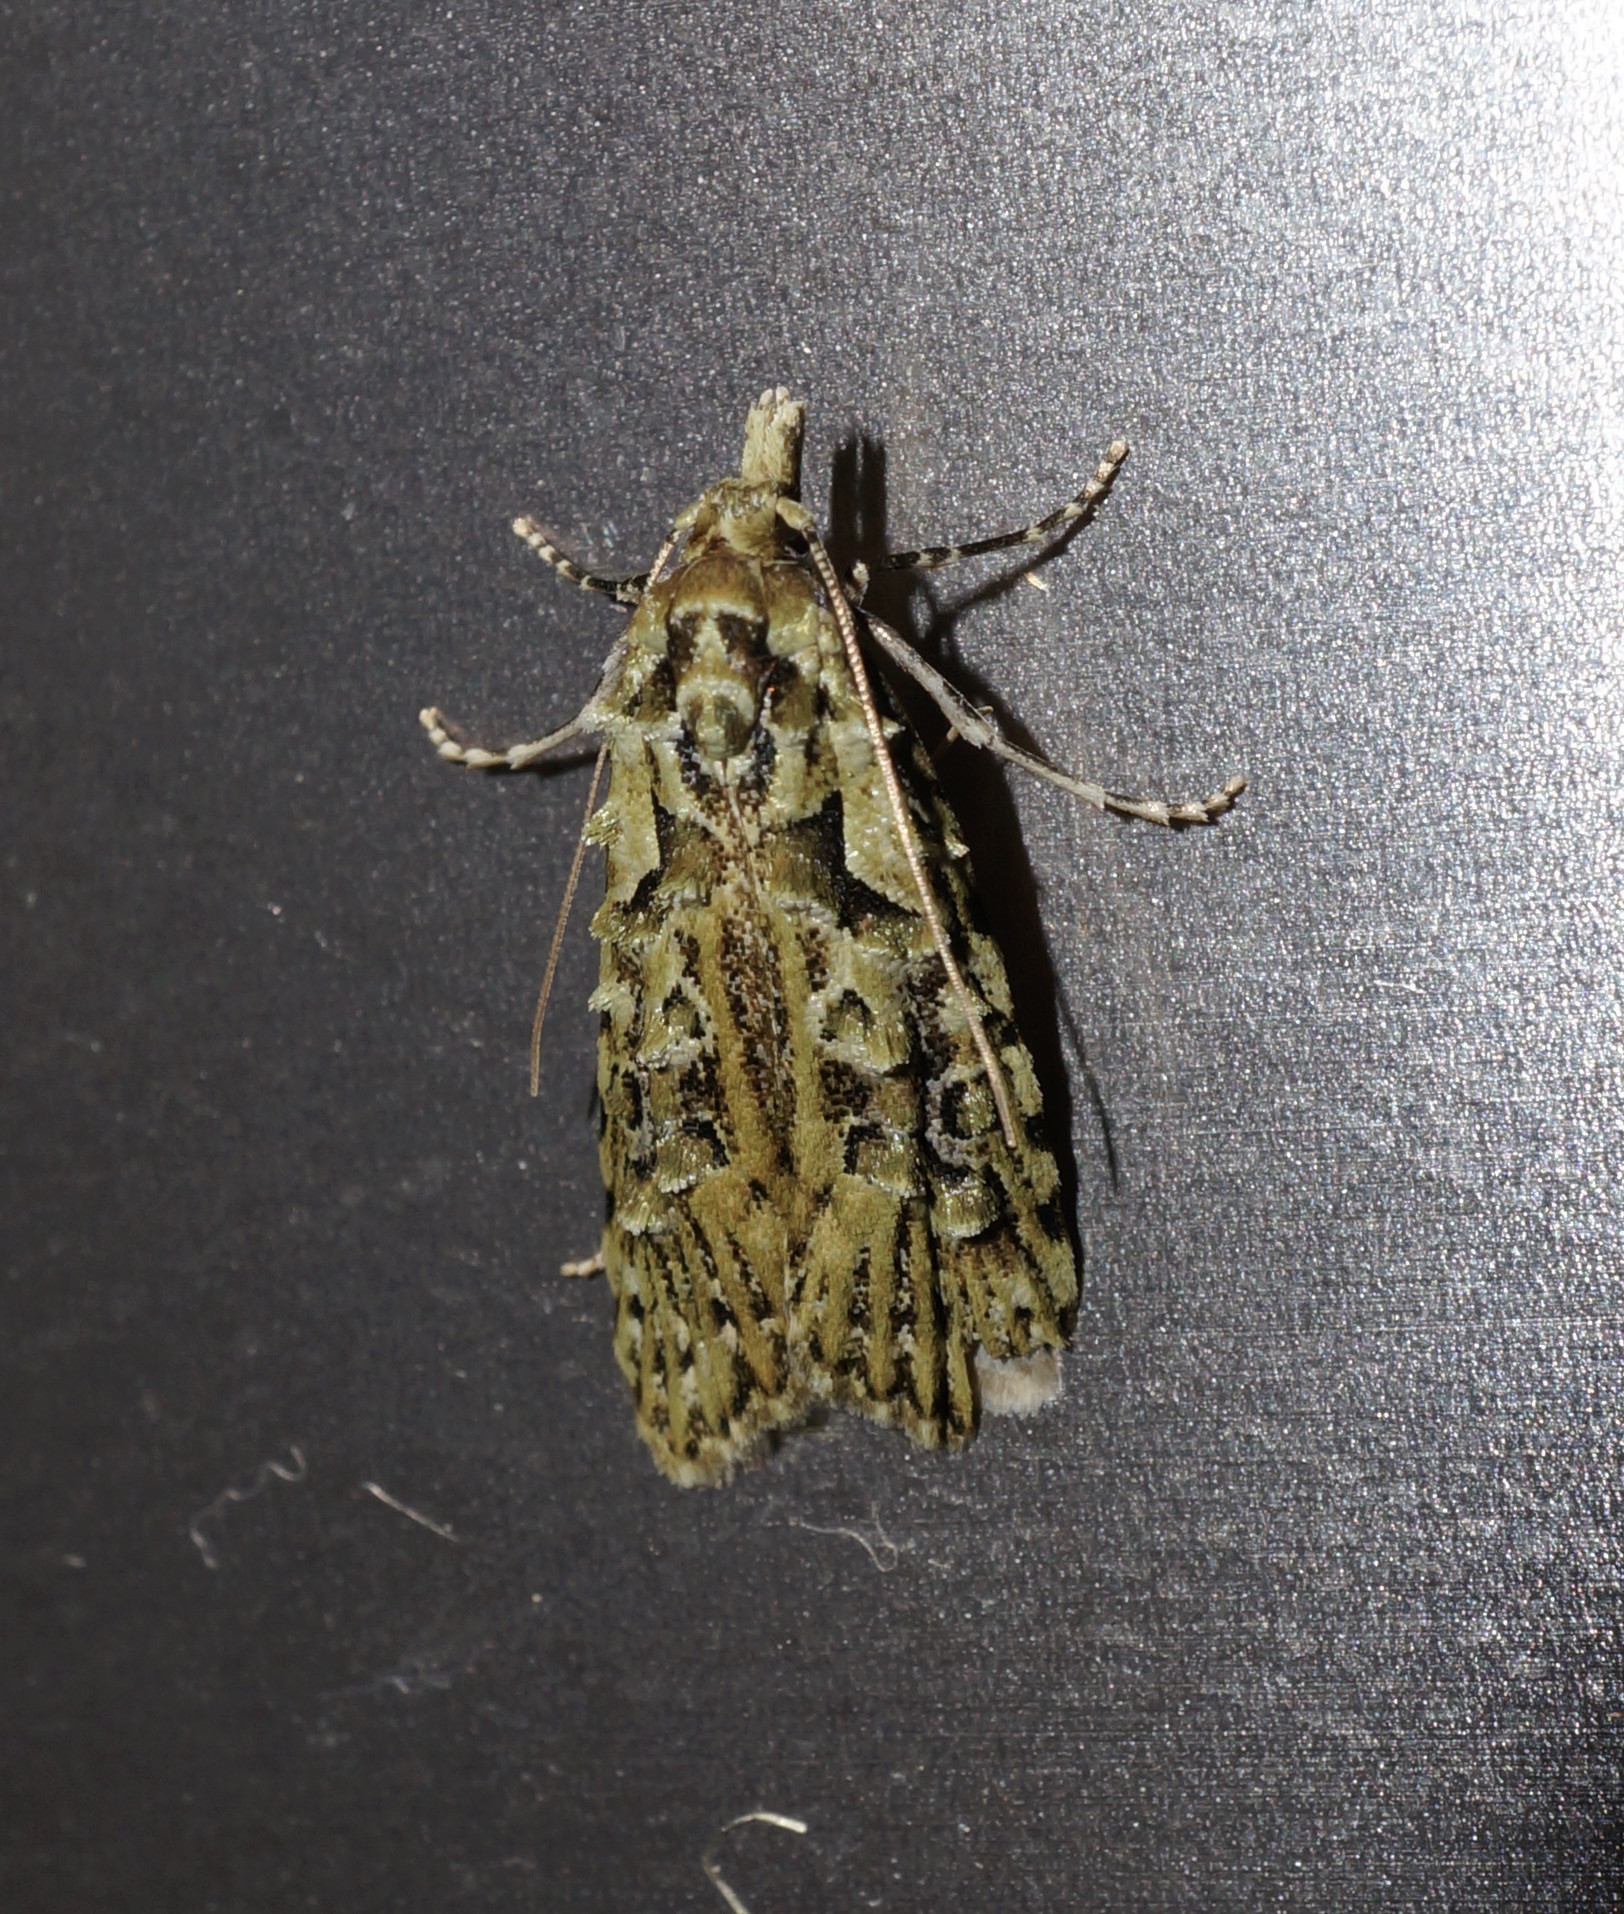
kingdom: Animalia
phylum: Arthropoda
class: Insecta
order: Lepidoptera
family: Carposinidae
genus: Carposina
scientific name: Carposina Heterocrossa eriphylla
